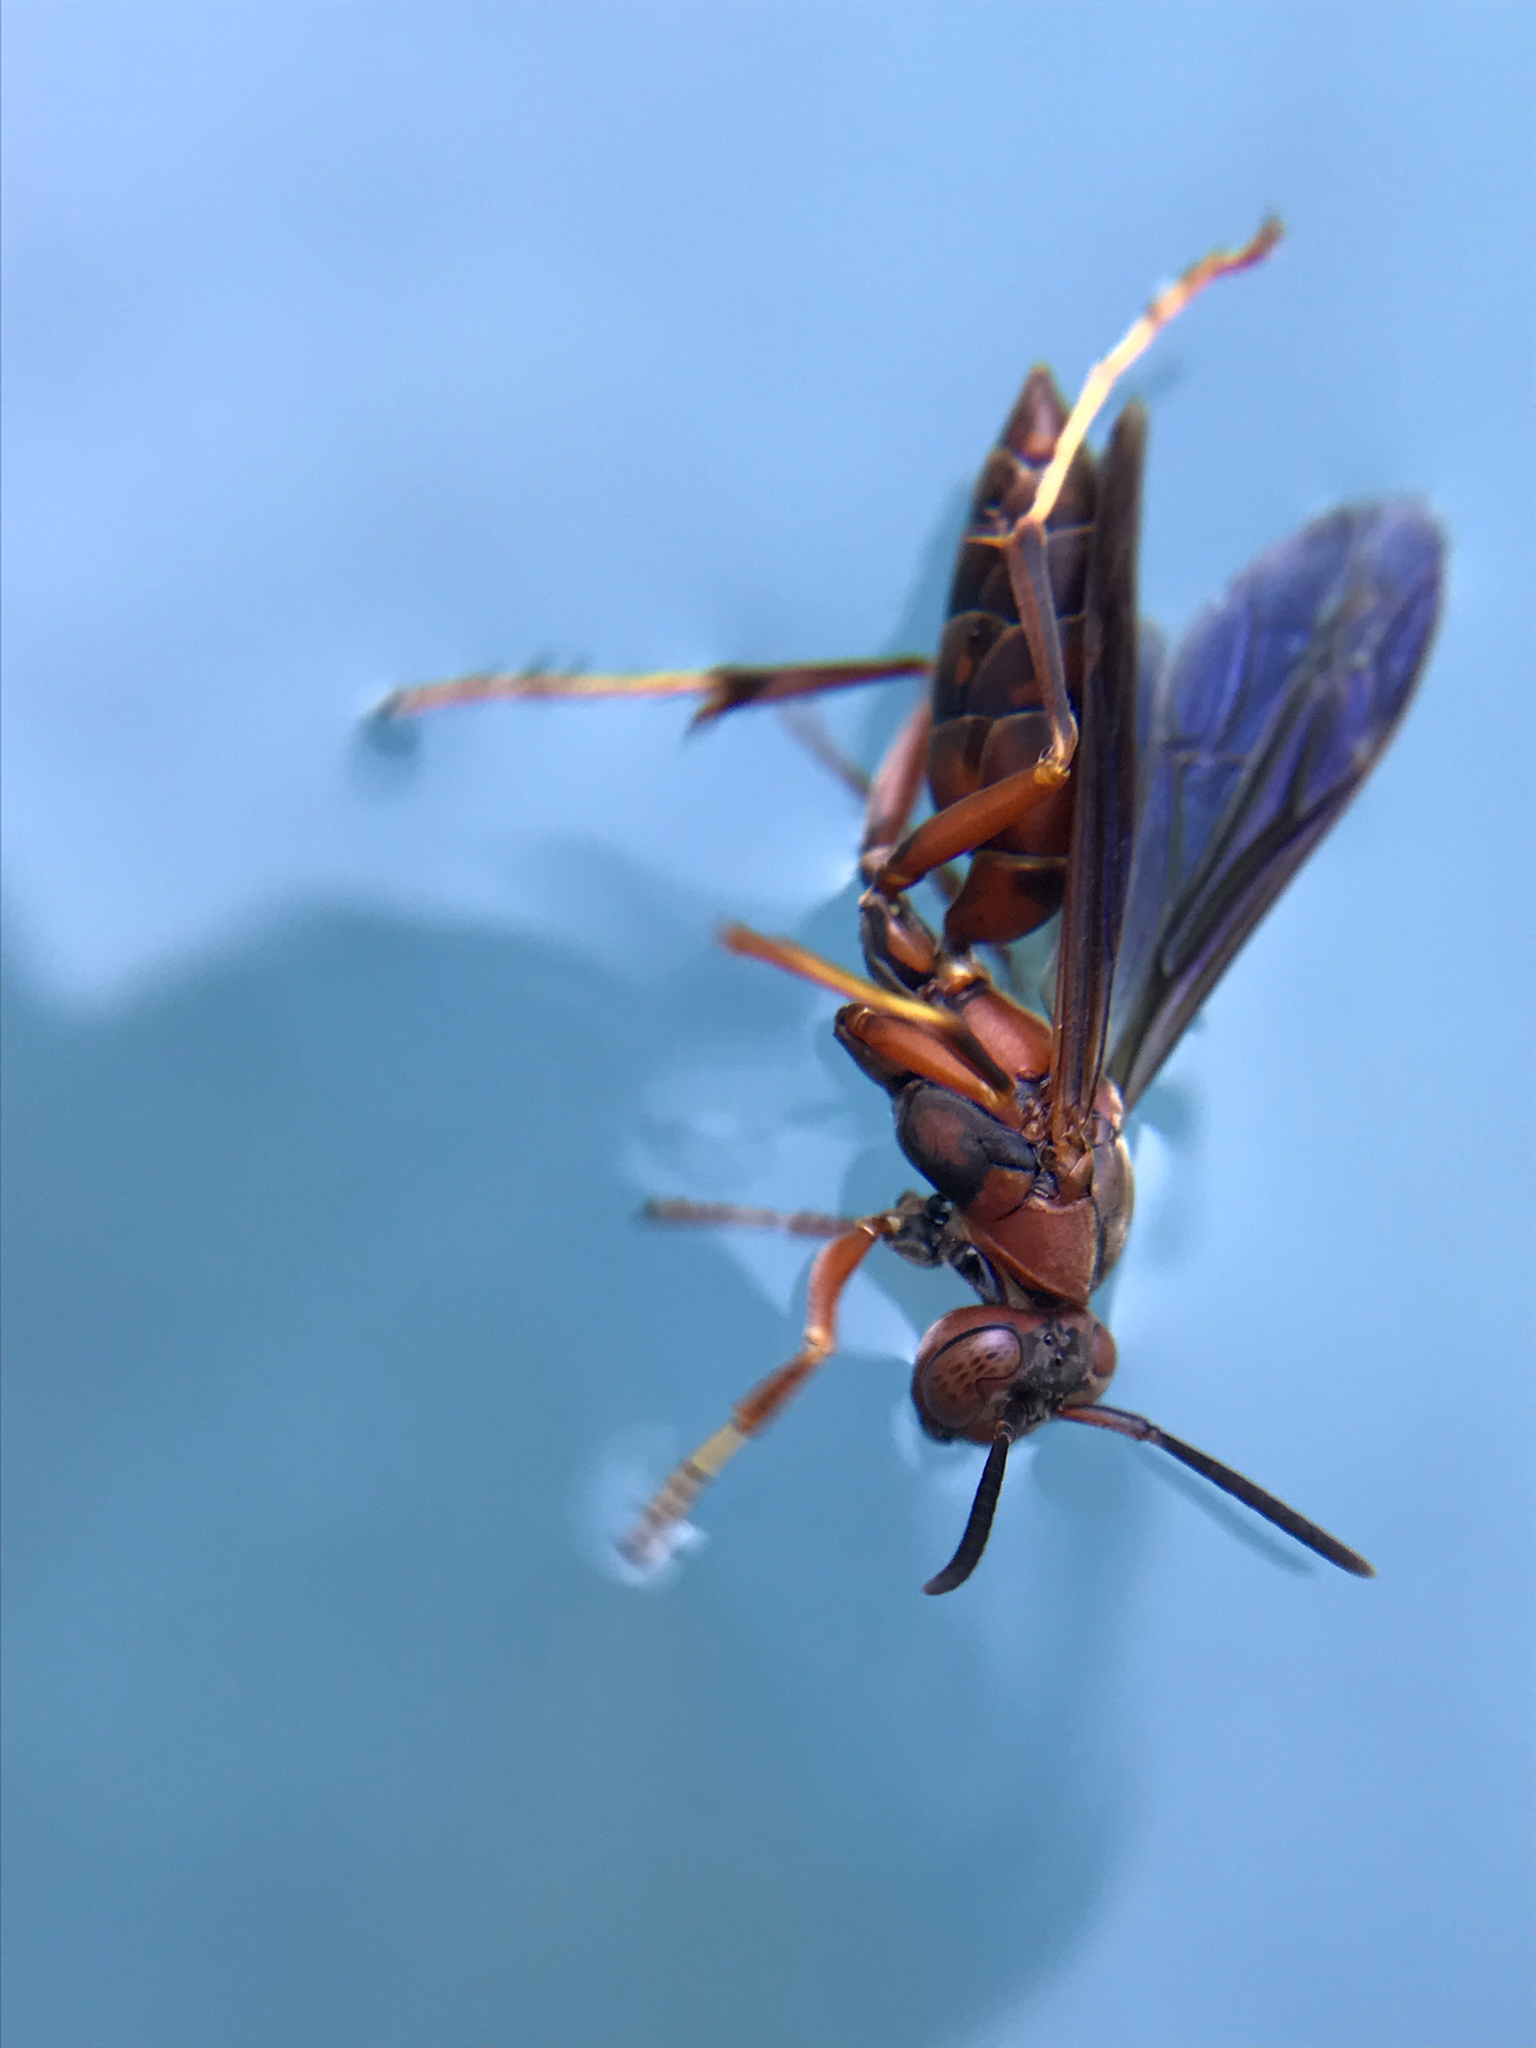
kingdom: Animalia
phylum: Arthropoda
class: Insecta
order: Hymenoptera
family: Vespidae
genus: Fuscopolistes
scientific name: Fuscopolistes
